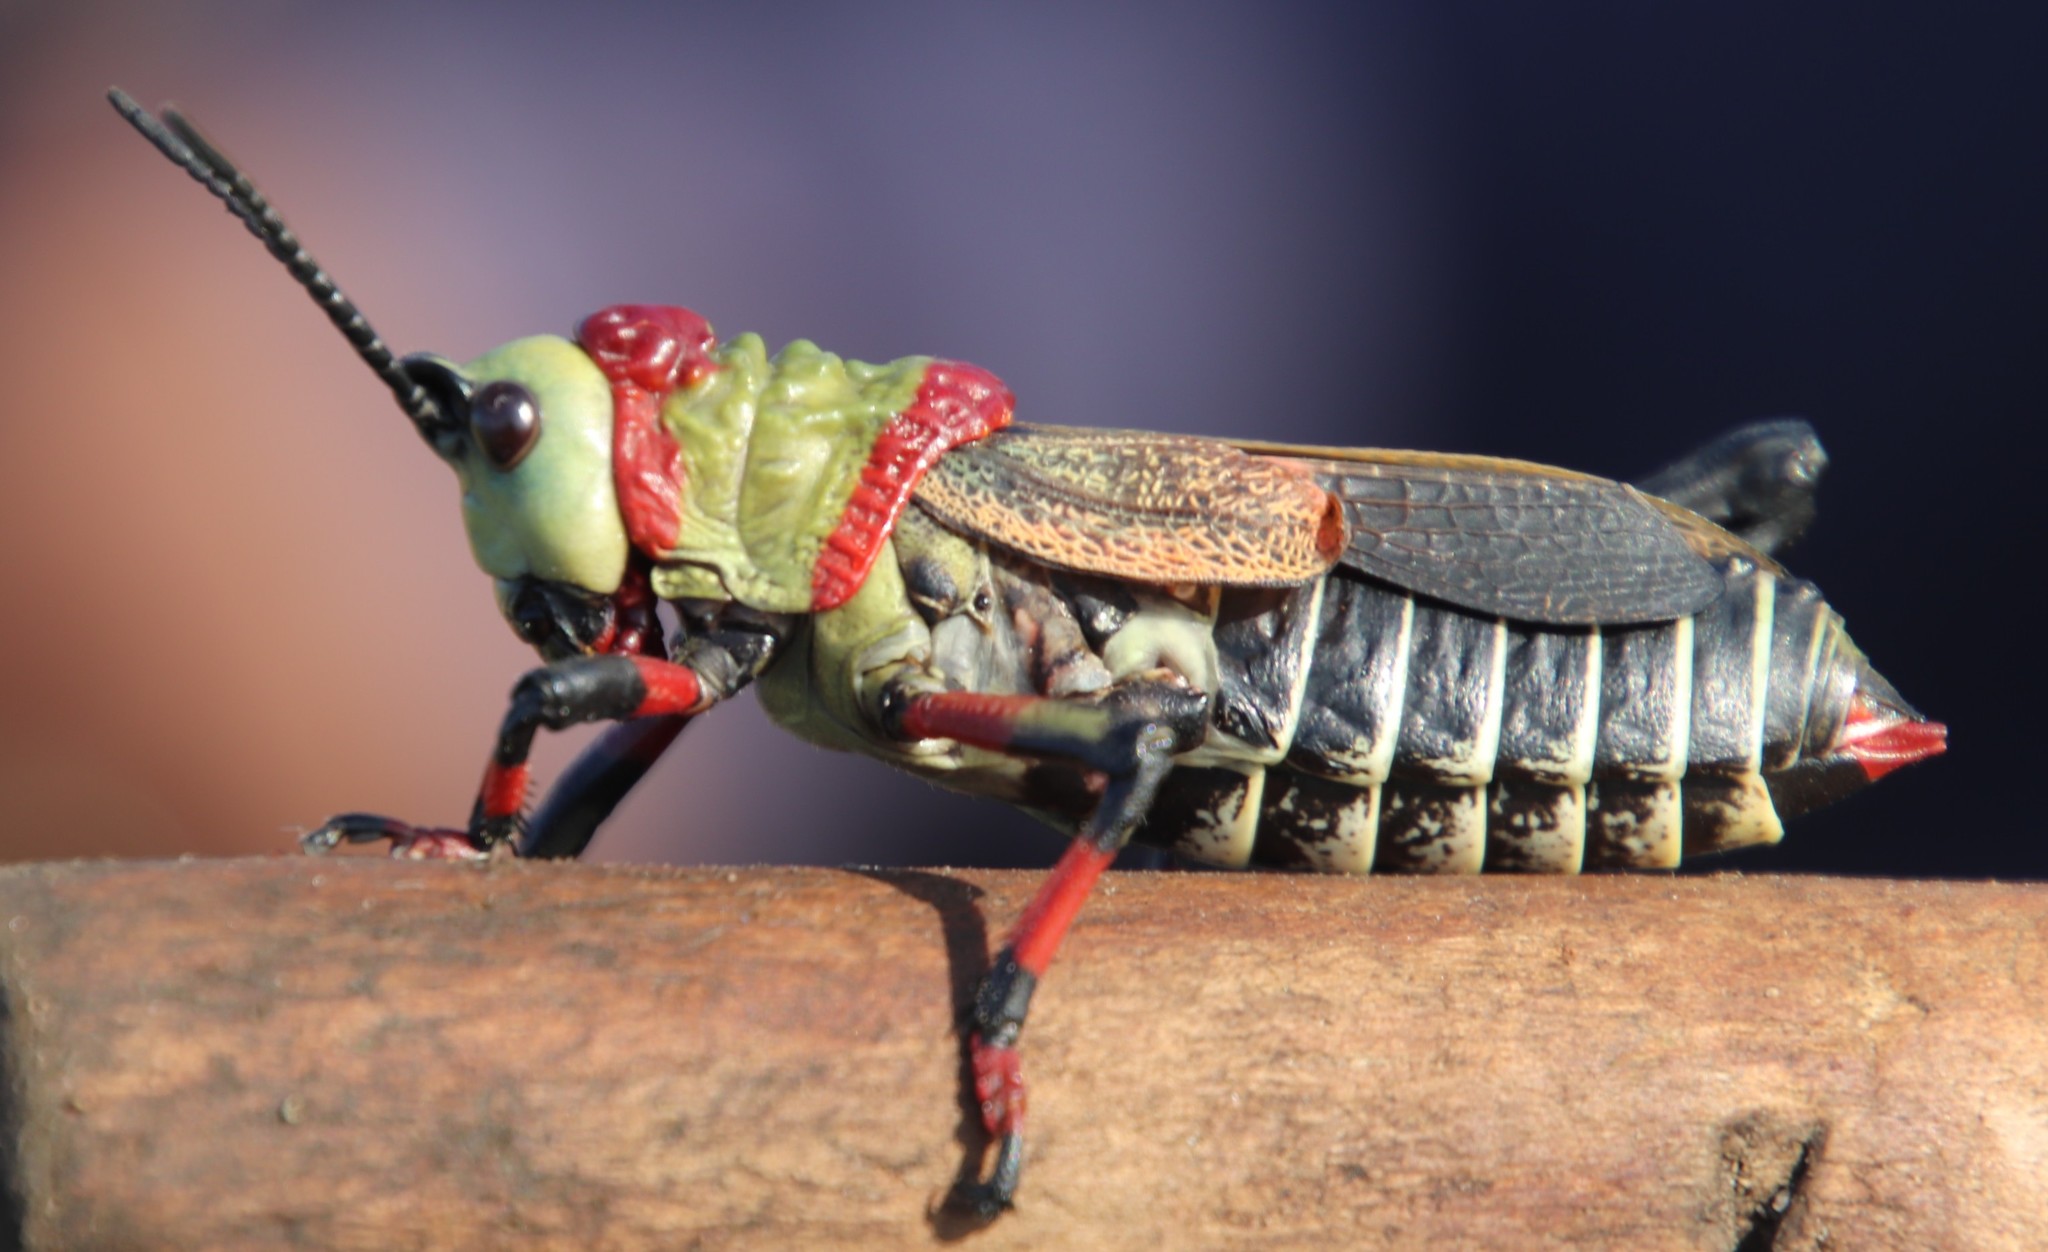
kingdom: Animalia
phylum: Arthropoda
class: Insecta
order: Orthoptera
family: Pyrgomorphidae
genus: Dictyophorus
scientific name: Dictyophorus spumans
